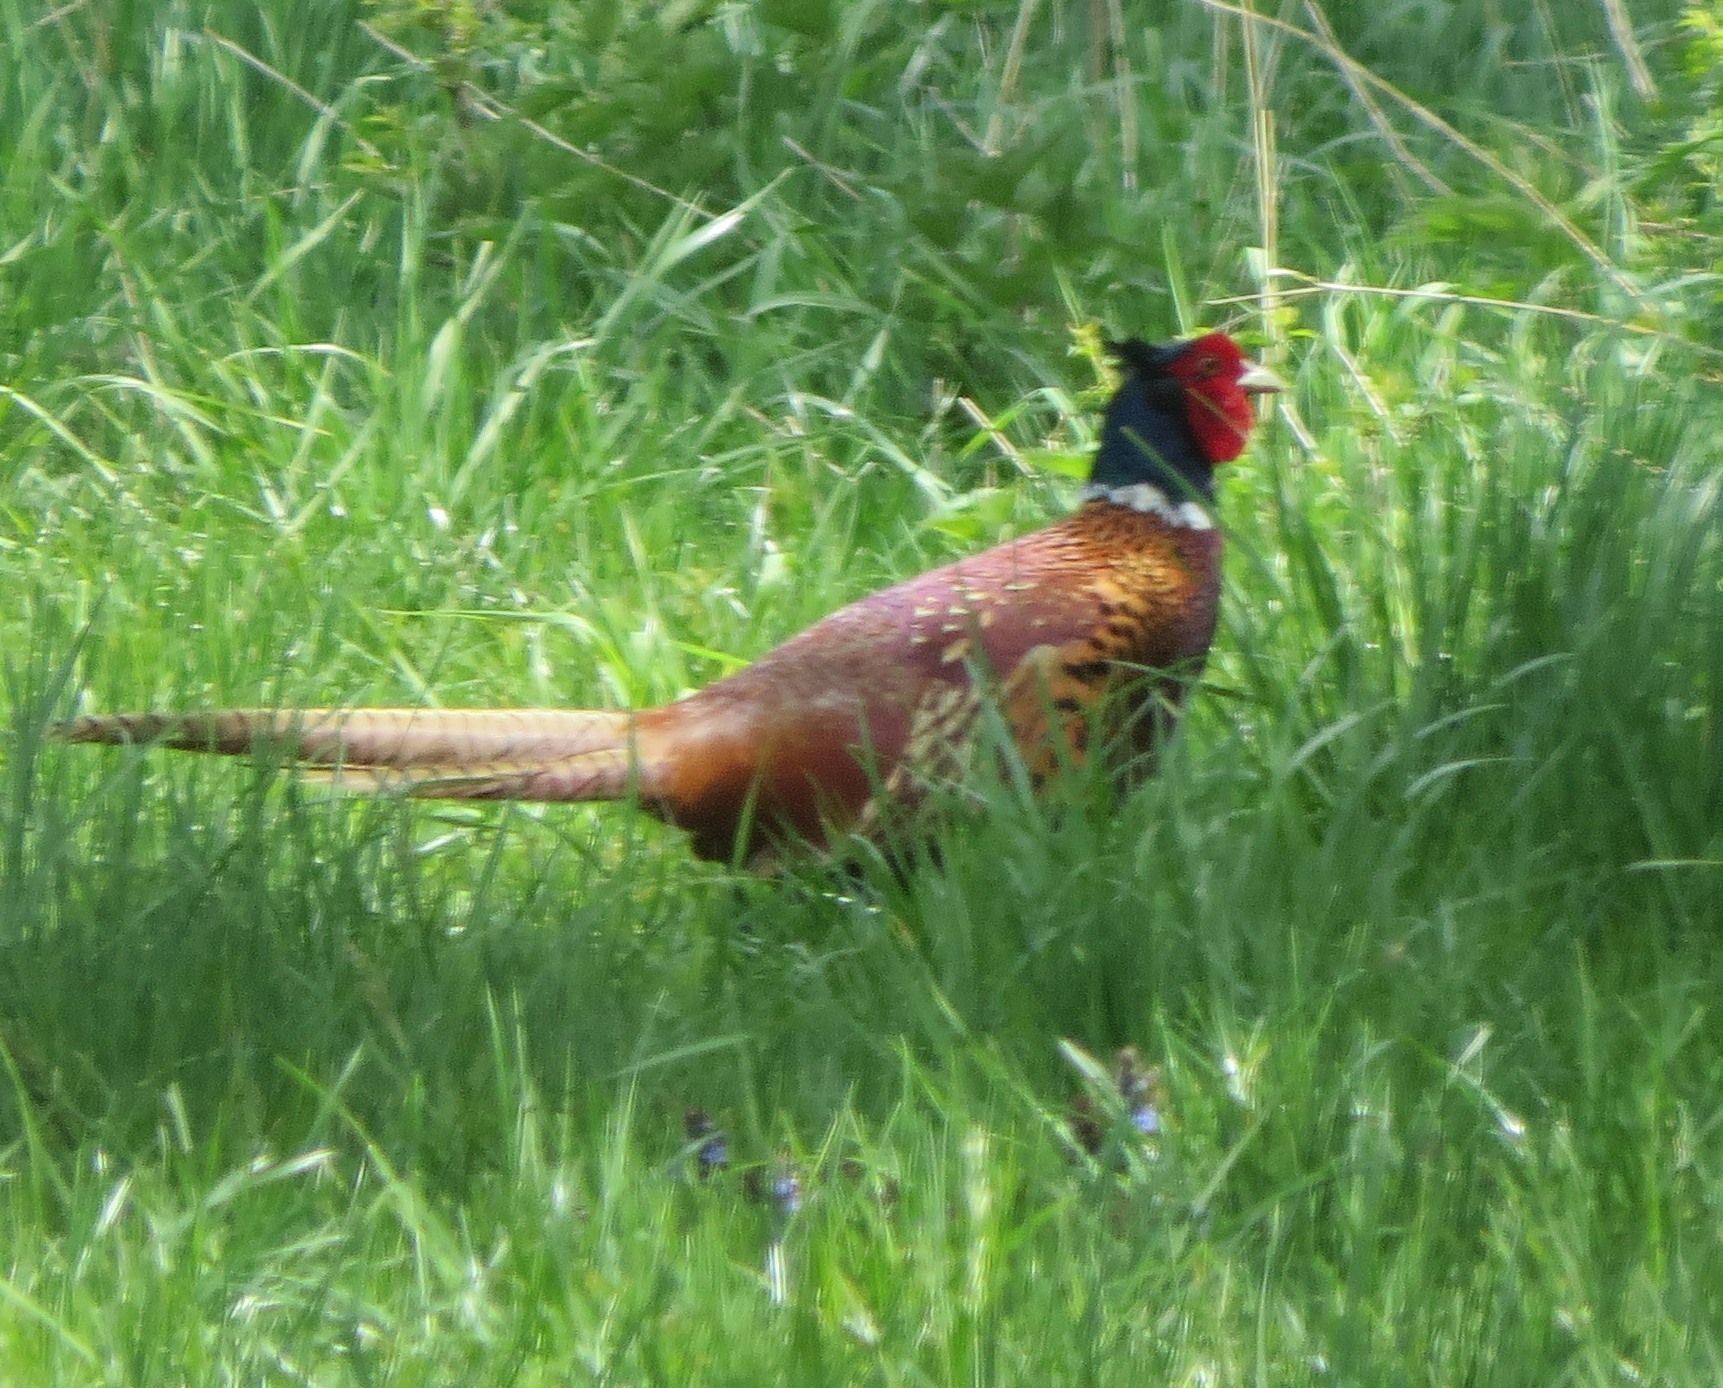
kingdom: Animalia
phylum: Chordata
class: Aves
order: Galliformes
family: Phasianidae
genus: Phasianus
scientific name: Phasianus colchicus
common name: Common pheasant
